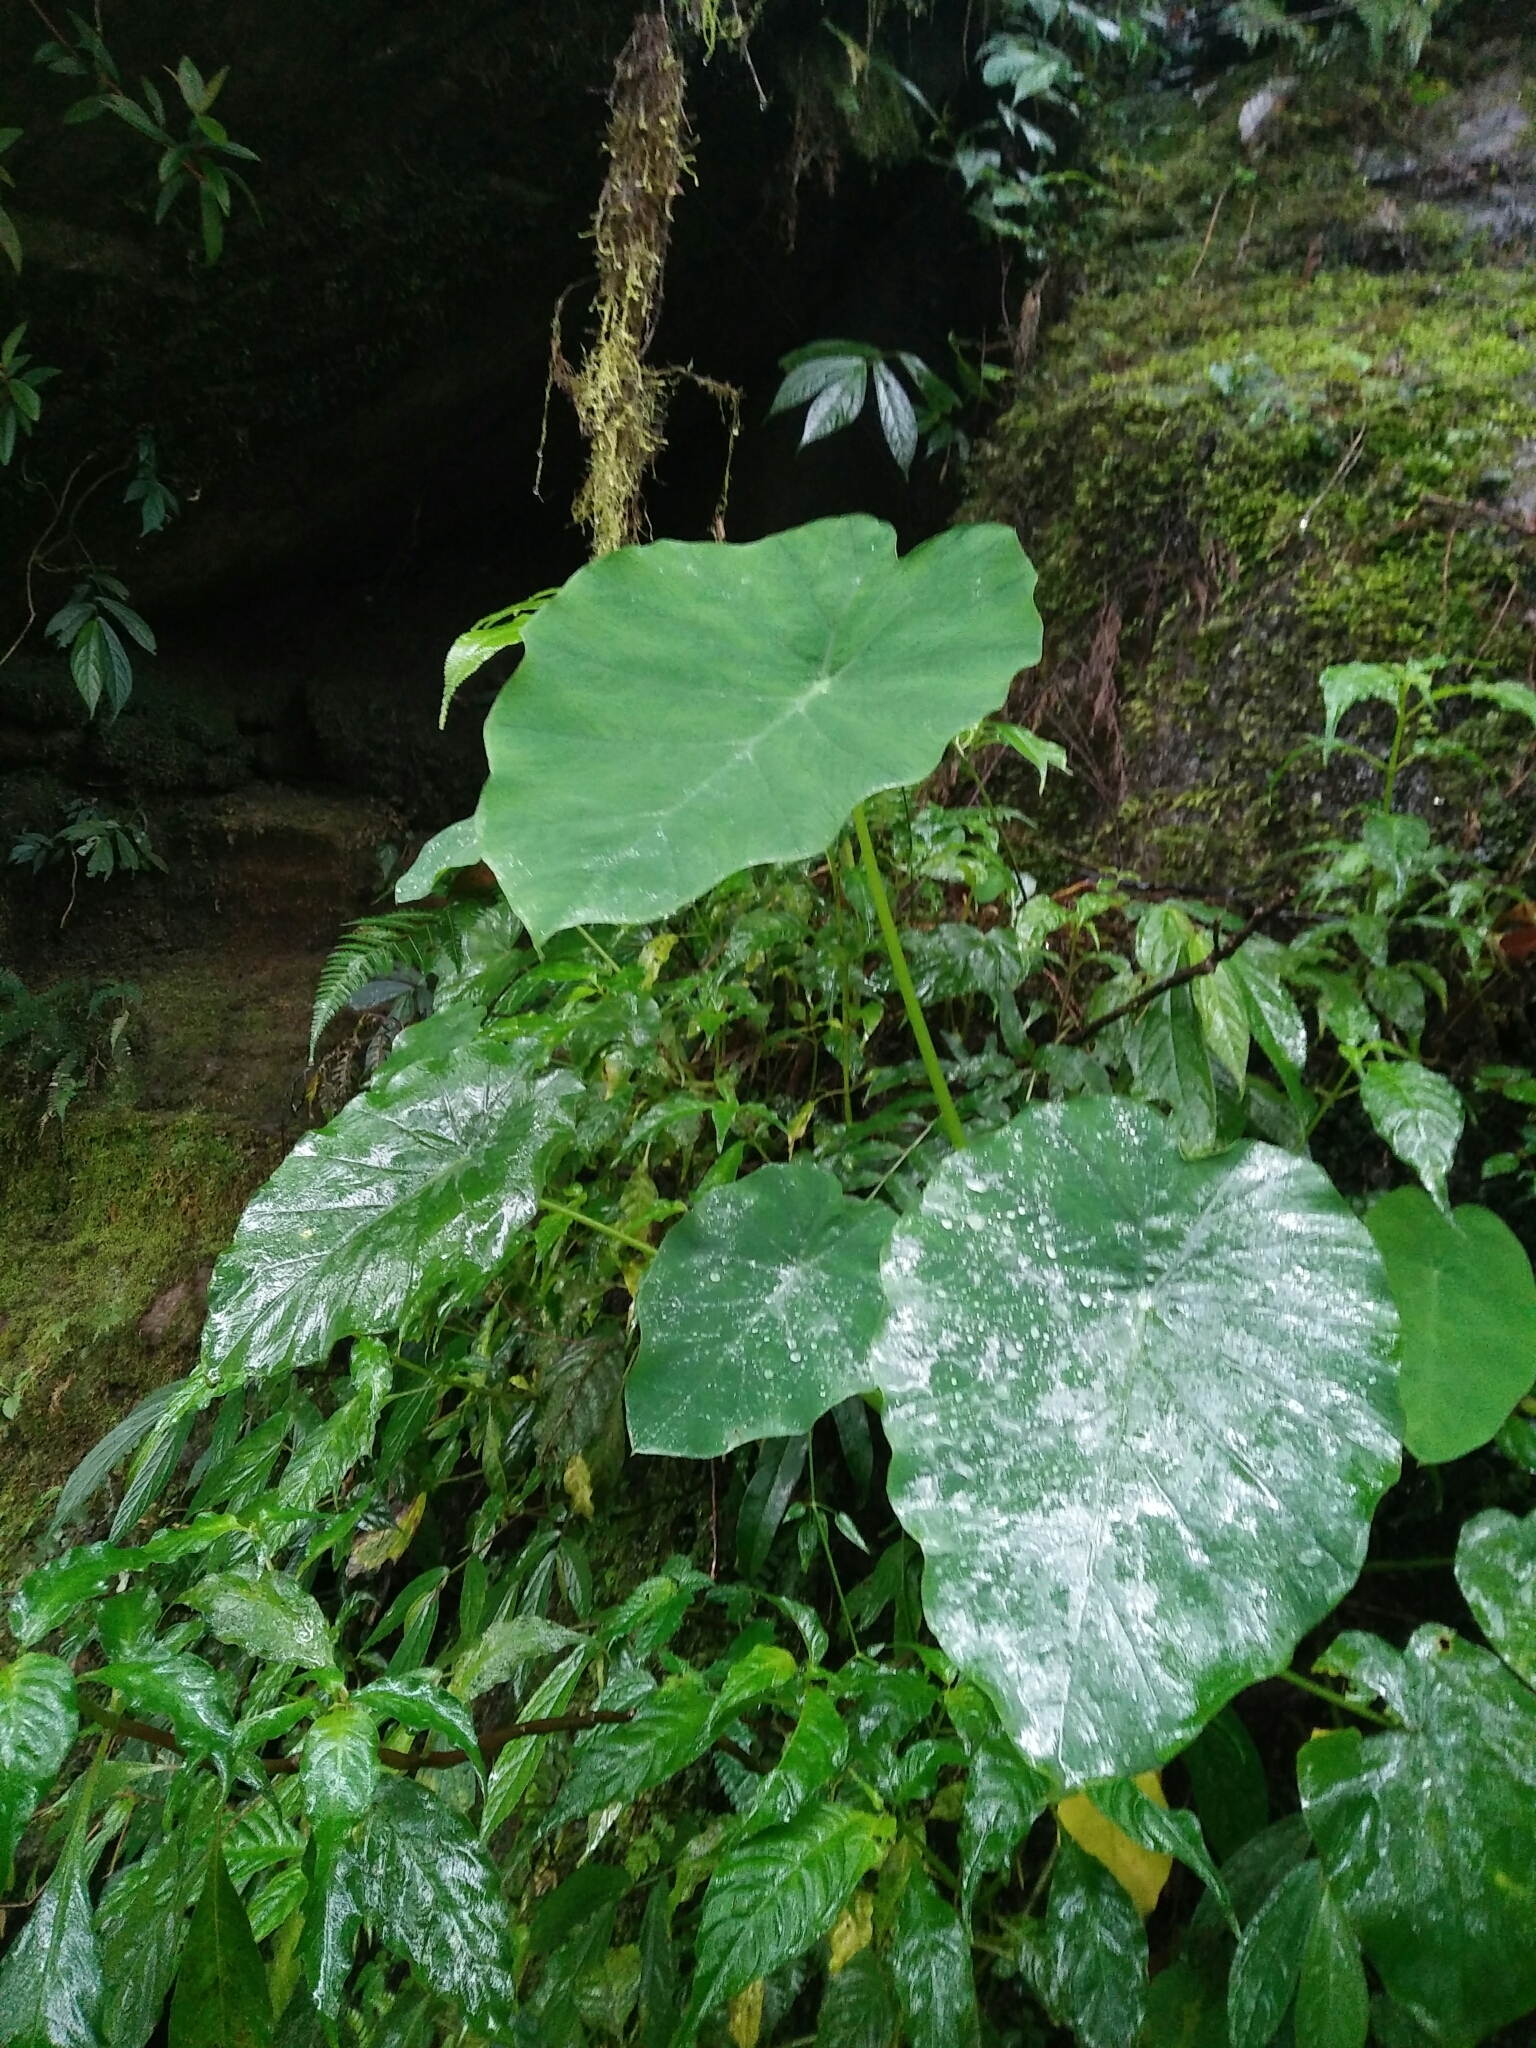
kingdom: Plantae
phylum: Tracheophyta
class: Liliopsida
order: Alismatales
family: Araceae
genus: Colocasia
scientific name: Colocasia esculenta
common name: Taro
